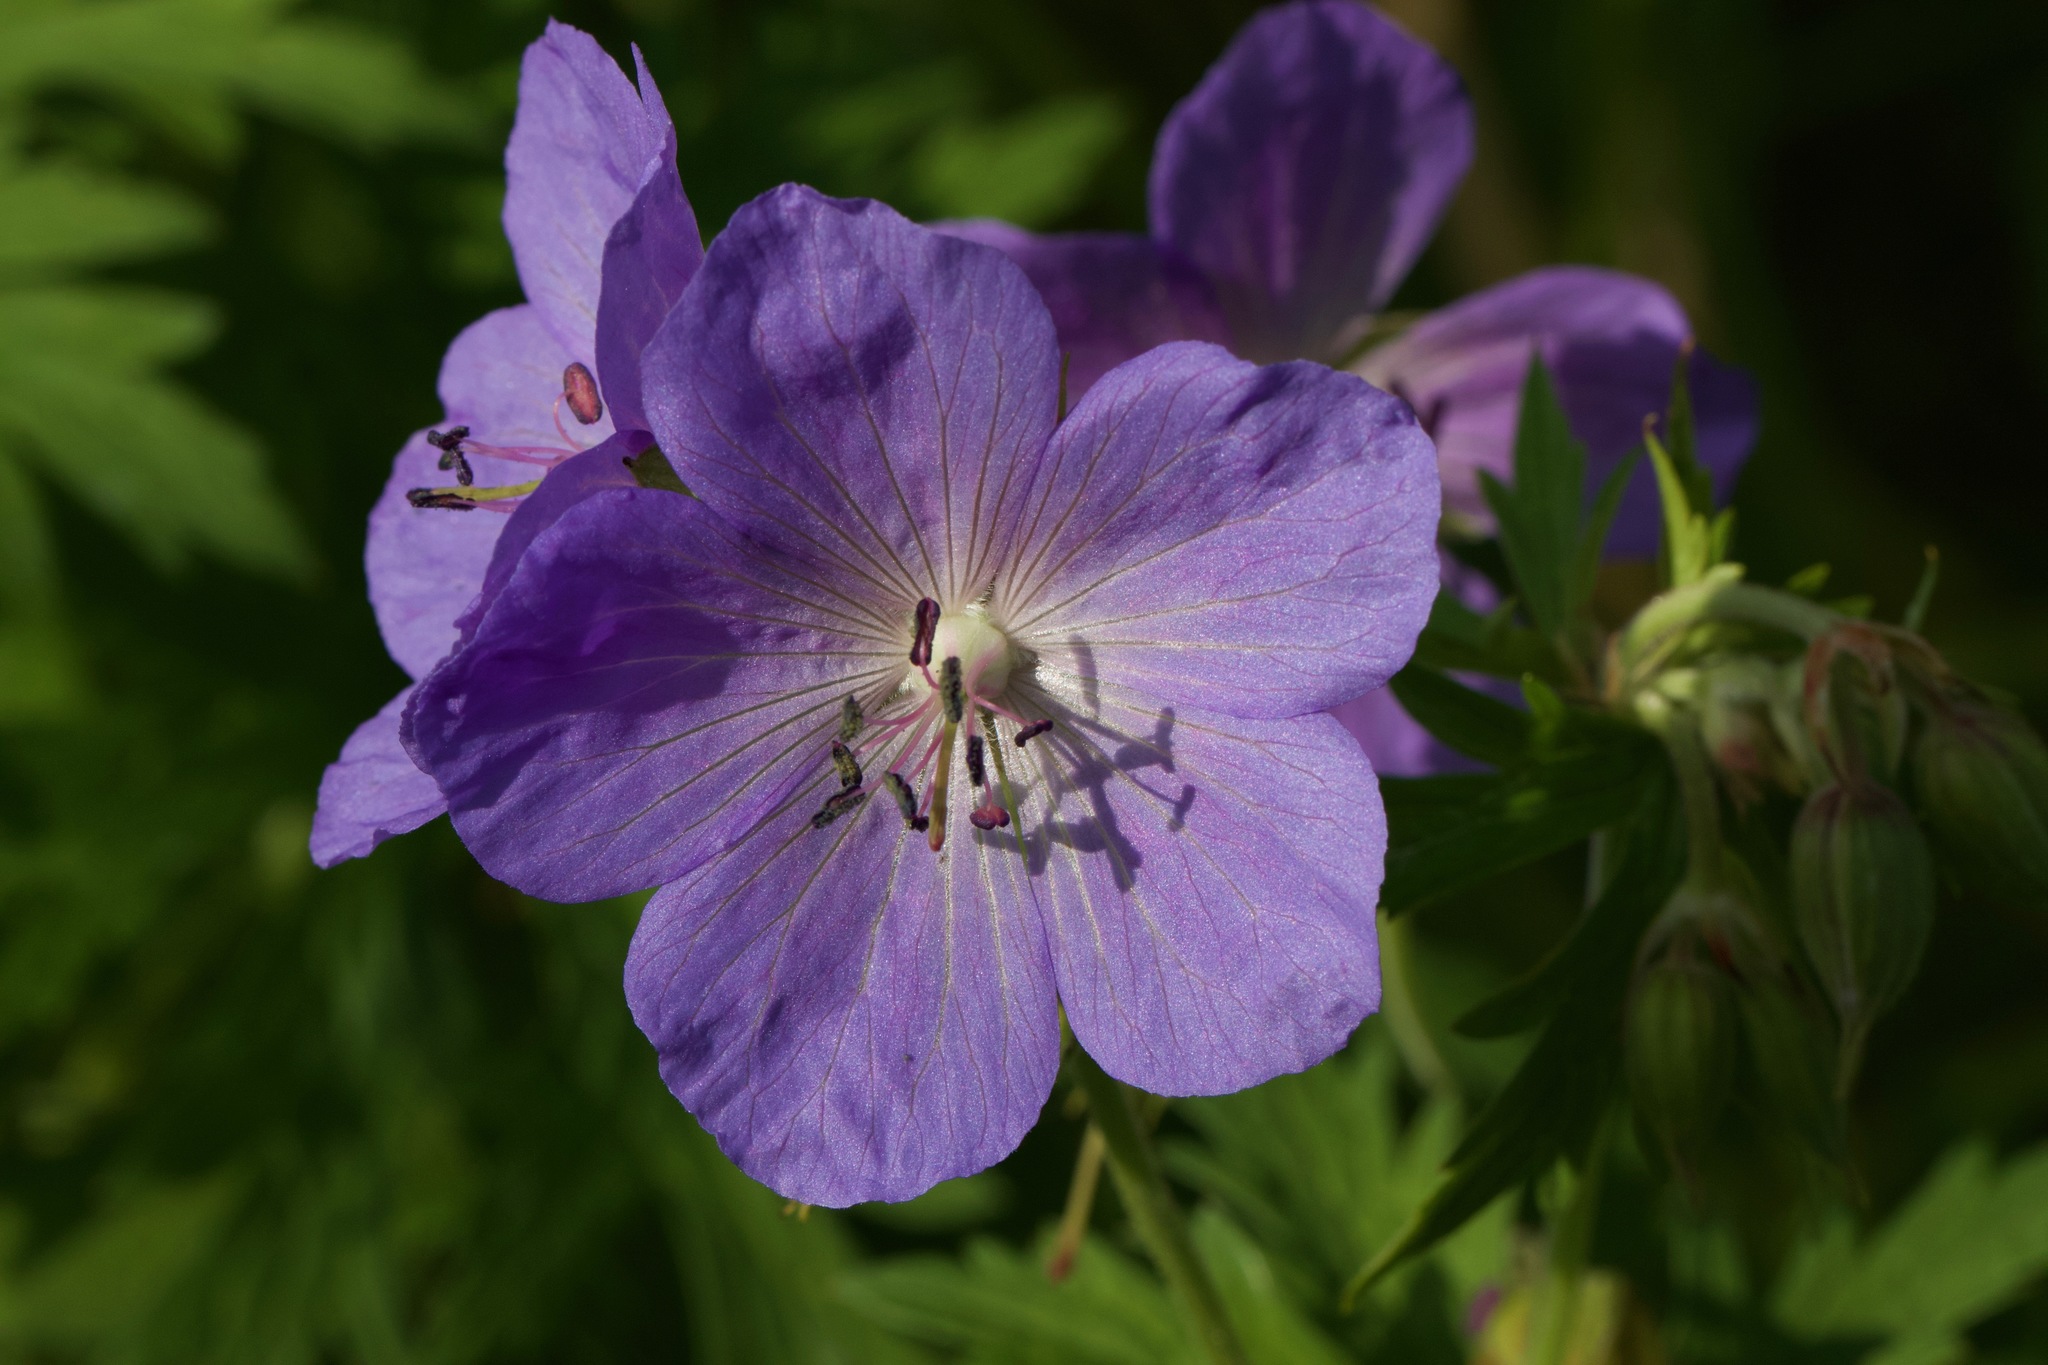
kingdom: Plantae
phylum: Tracheophyta
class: Magnoliopsida
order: Geraniales
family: Geraniaceae
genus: Geranium
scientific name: Geranium pratense
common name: Meadow crane's-bill
